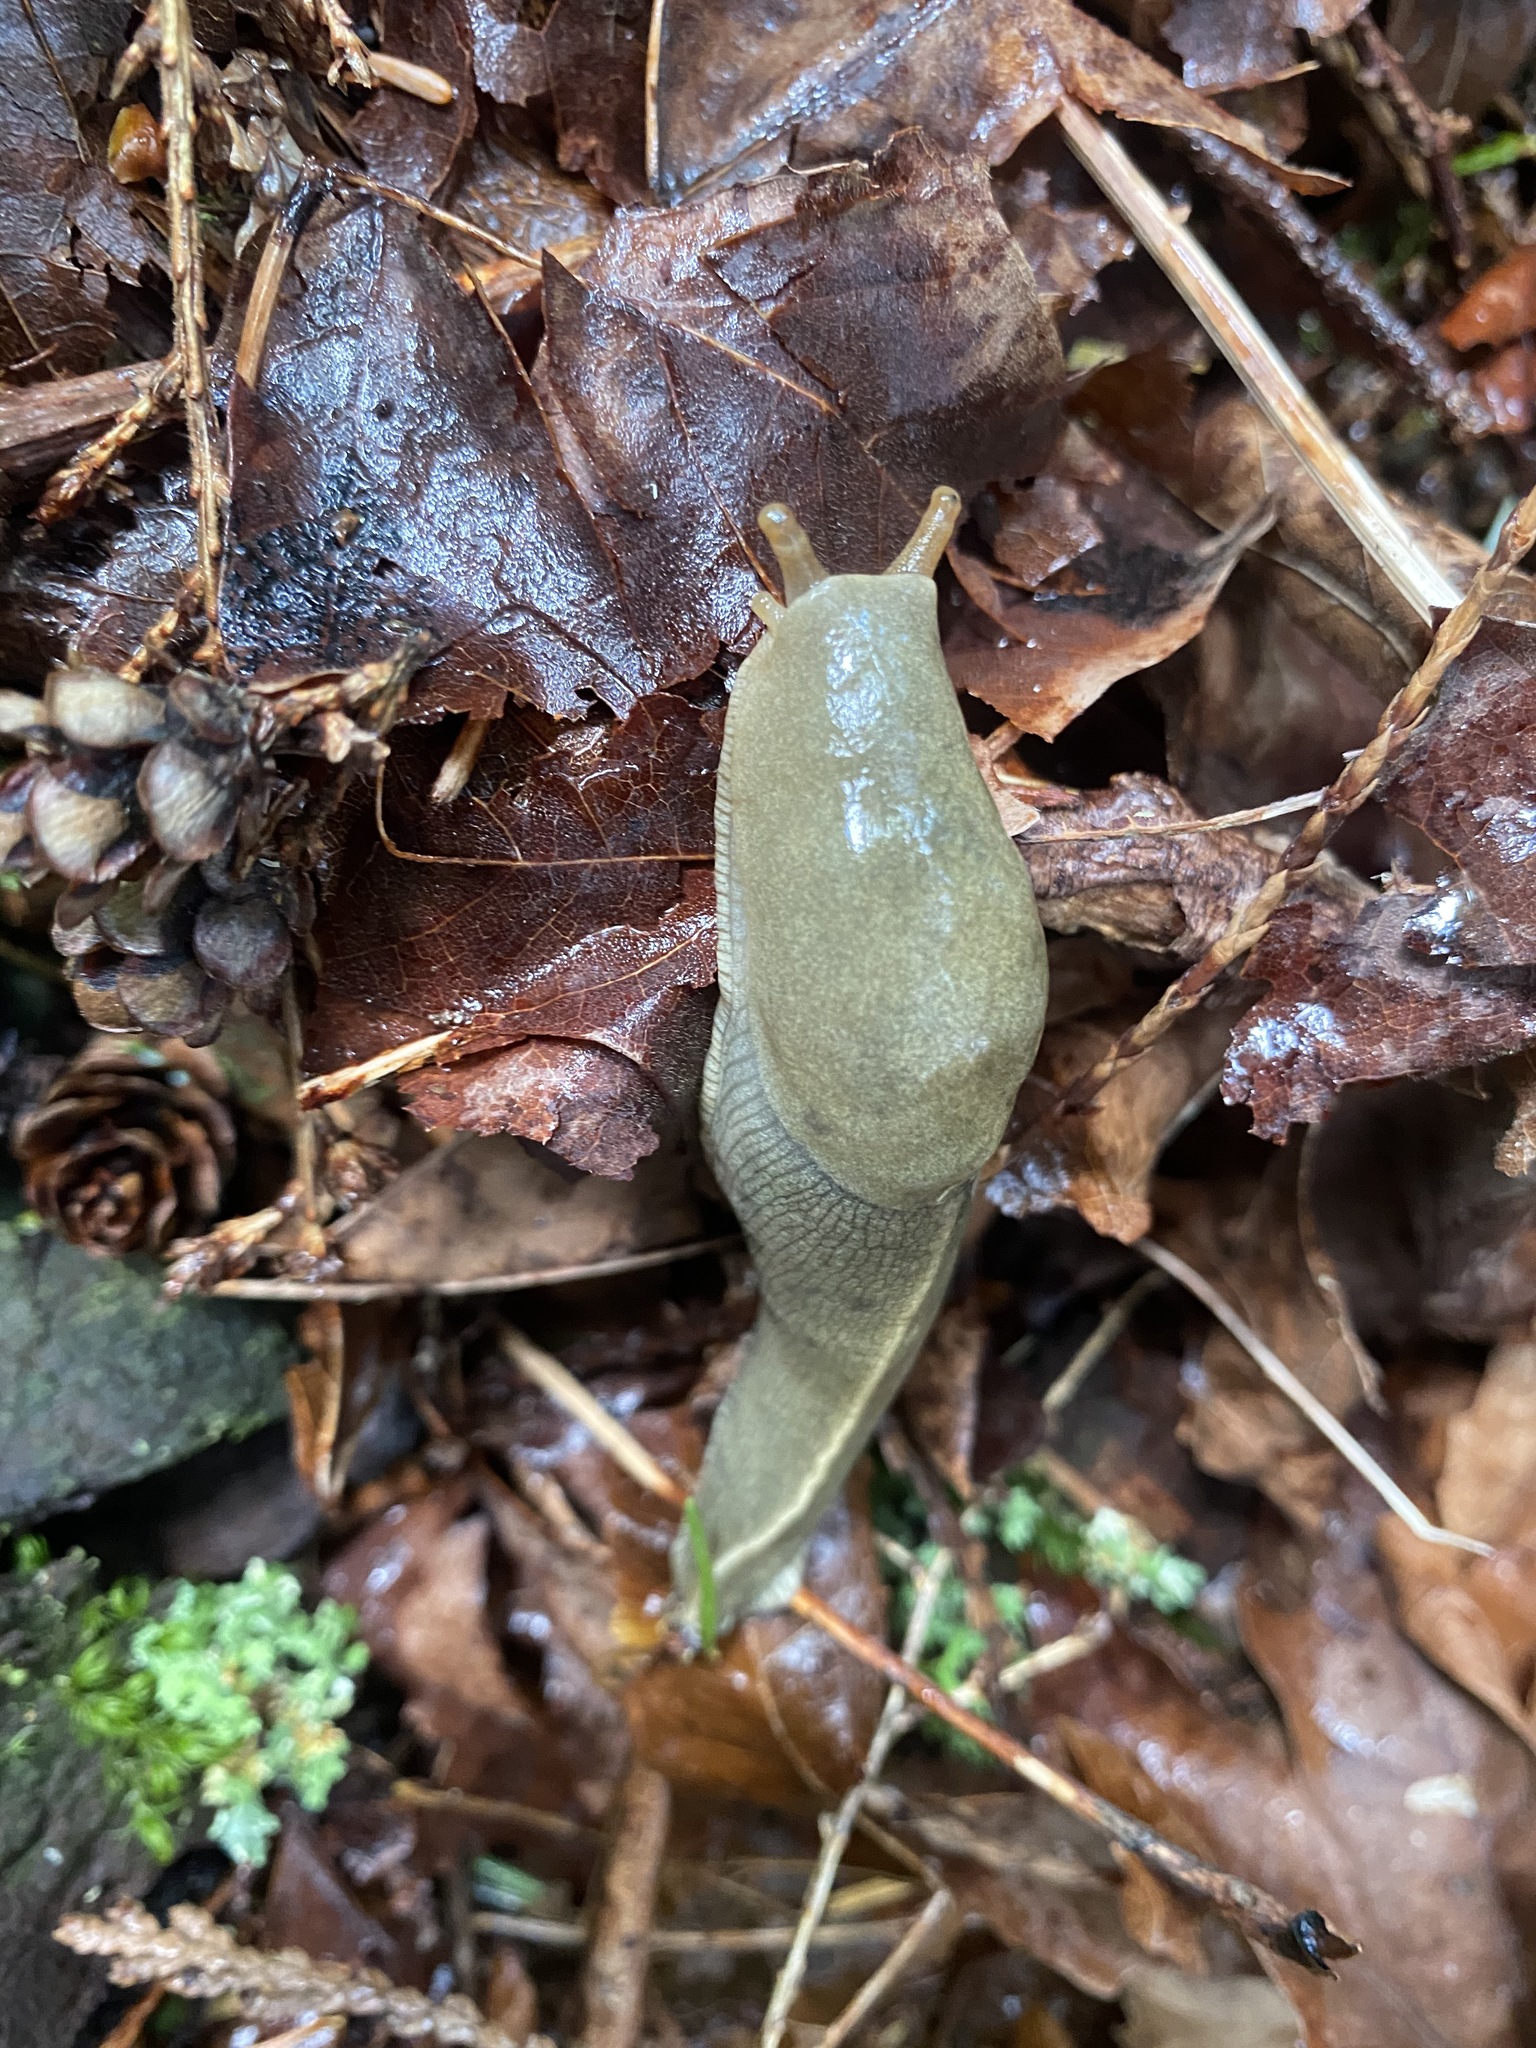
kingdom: Animalia
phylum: Mollusca
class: Gastropoda
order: Stylommatophora
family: Ariolimacidae
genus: Ariolimax
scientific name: Ariolimax columbianus
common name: Pacific banana slug
